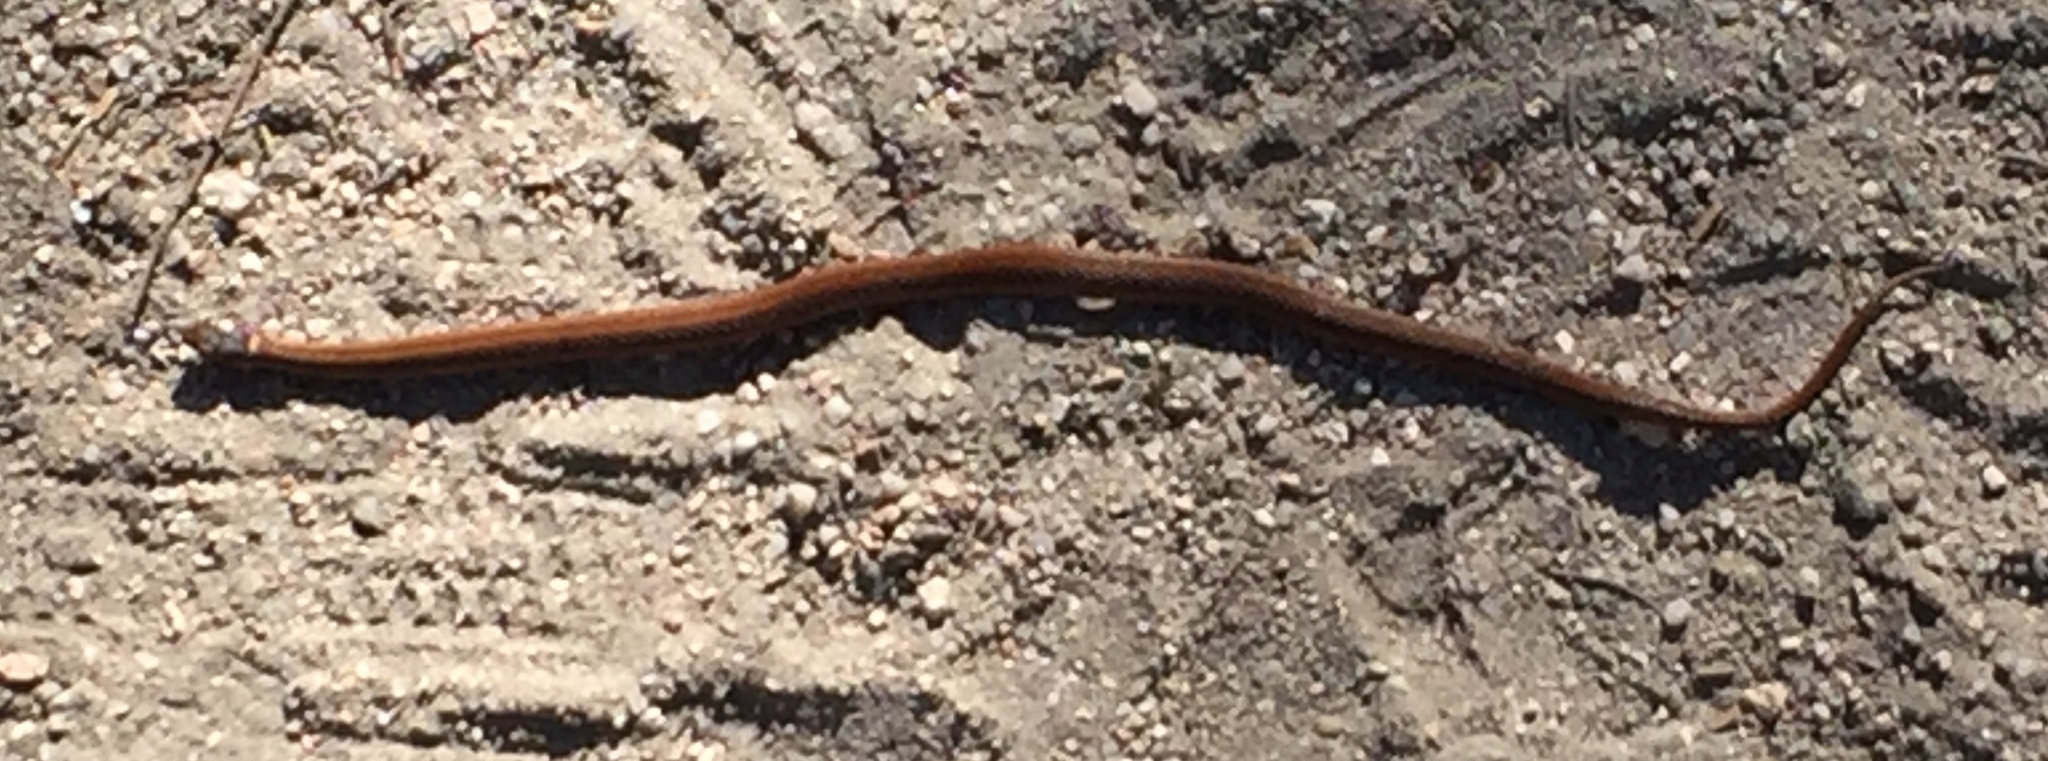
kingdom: Animalia
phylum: Chordata
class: Squamata
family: Colubridae
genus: Storeria
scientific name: Storeria occipitomaculata
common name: Redbelly snake
